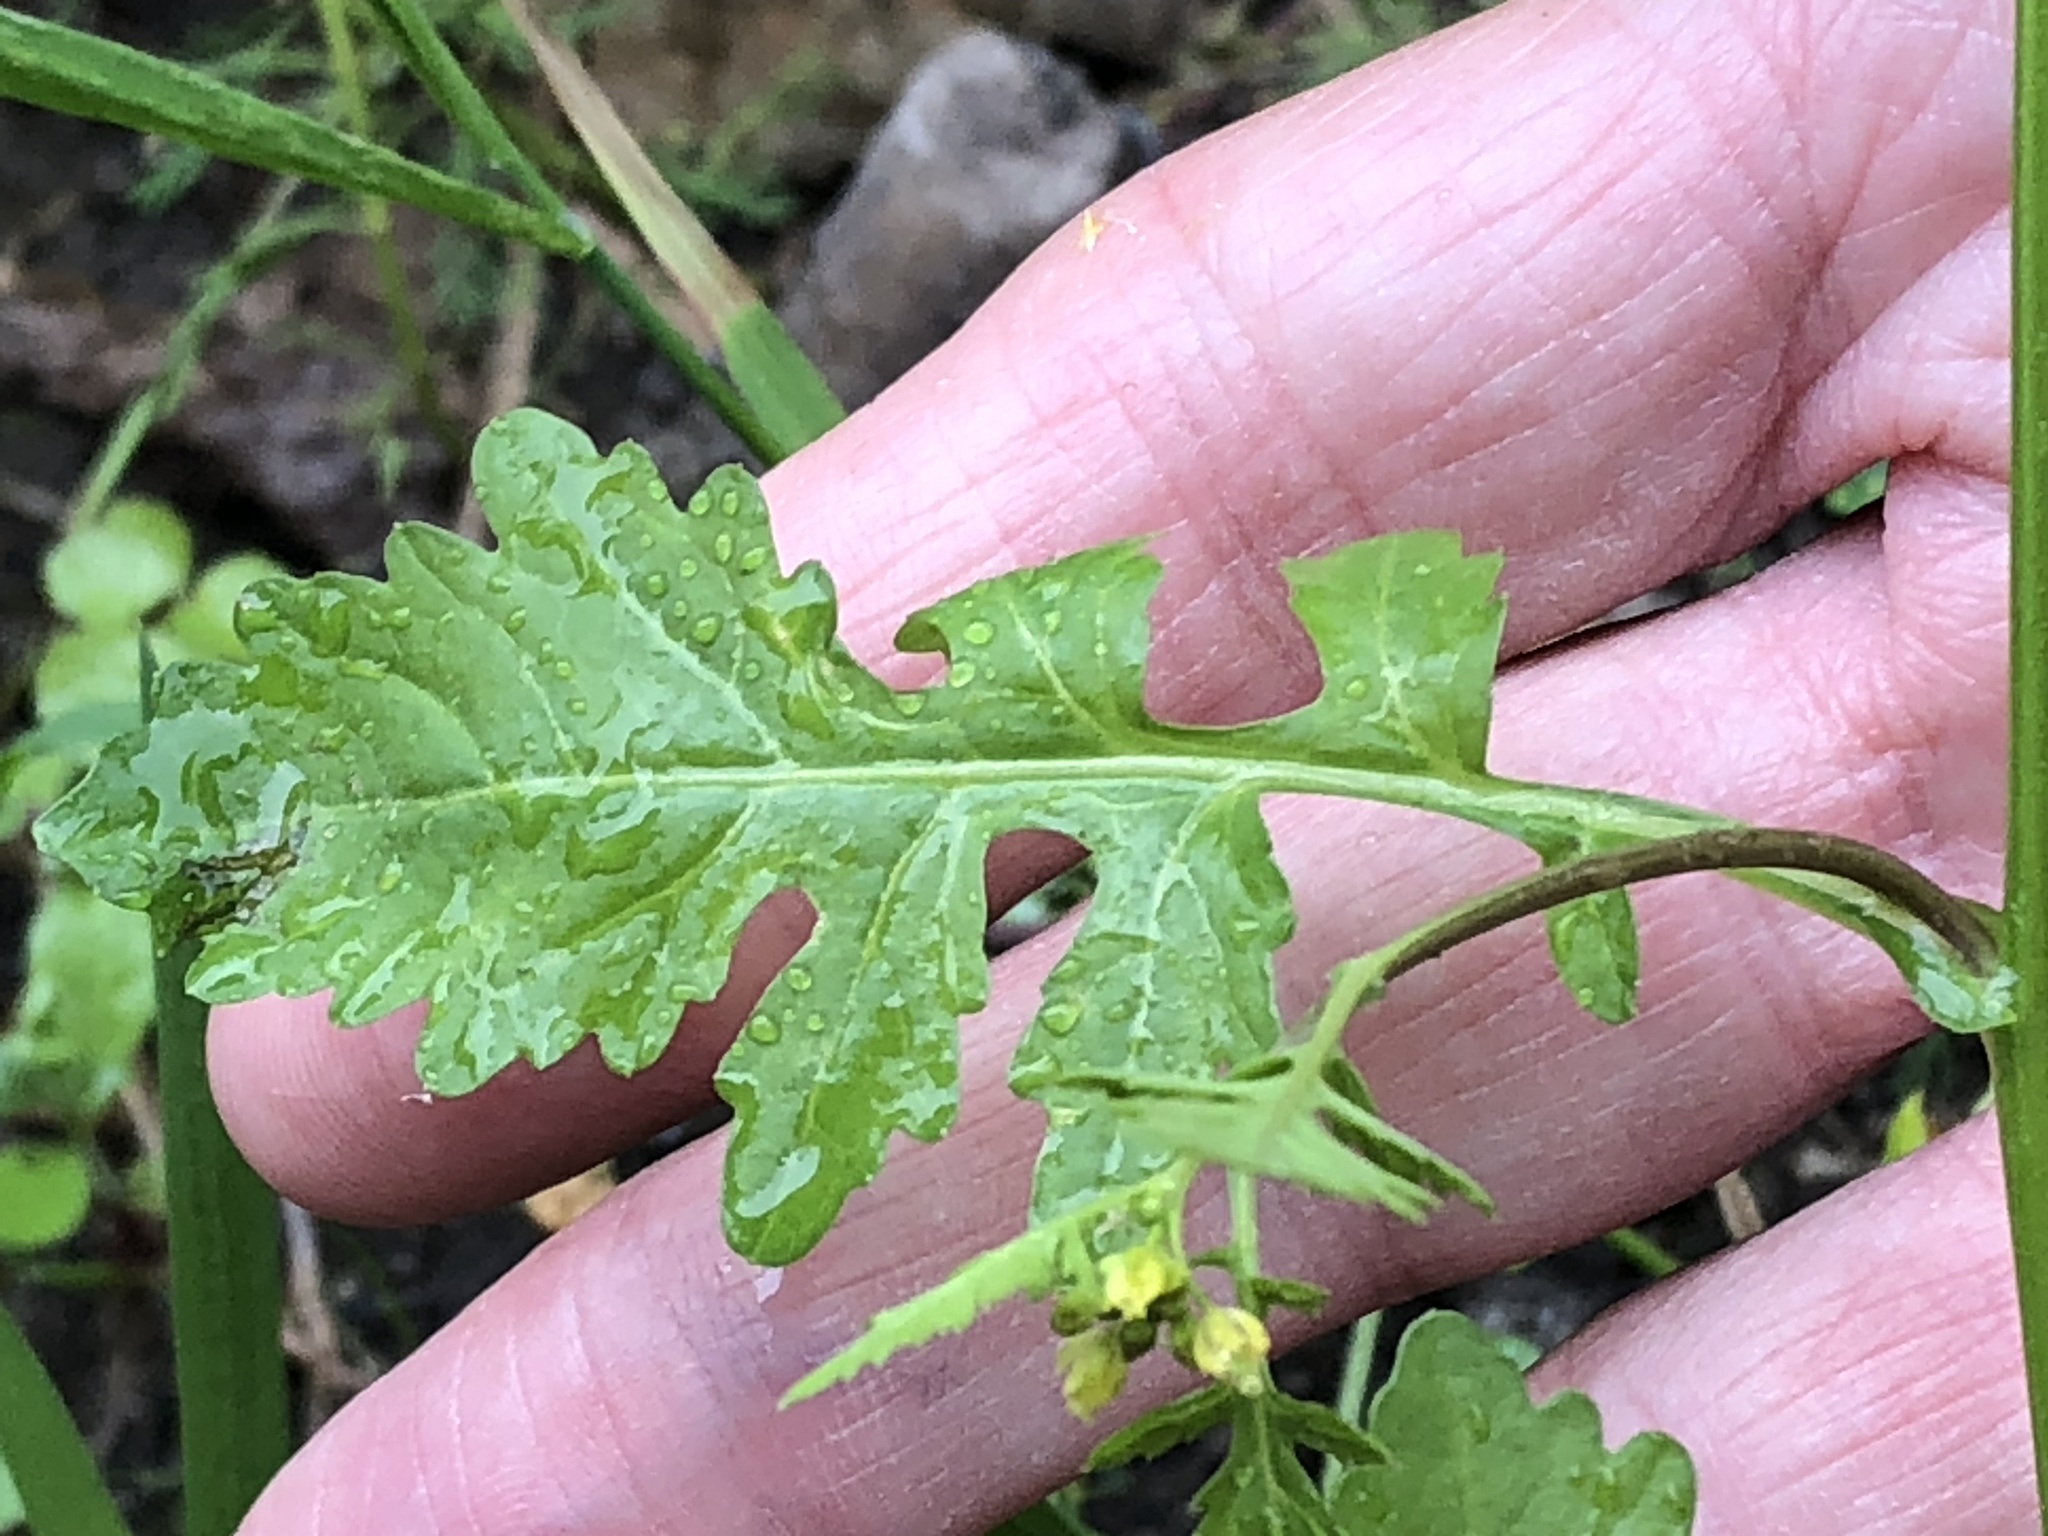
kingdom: Plantae
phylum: Tracheophyta
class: Magnoliopsida
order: Brassicales
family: Brassicaceae
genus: Rorippa
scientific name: Rorippa palustris
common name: Marsh yellow-cress
